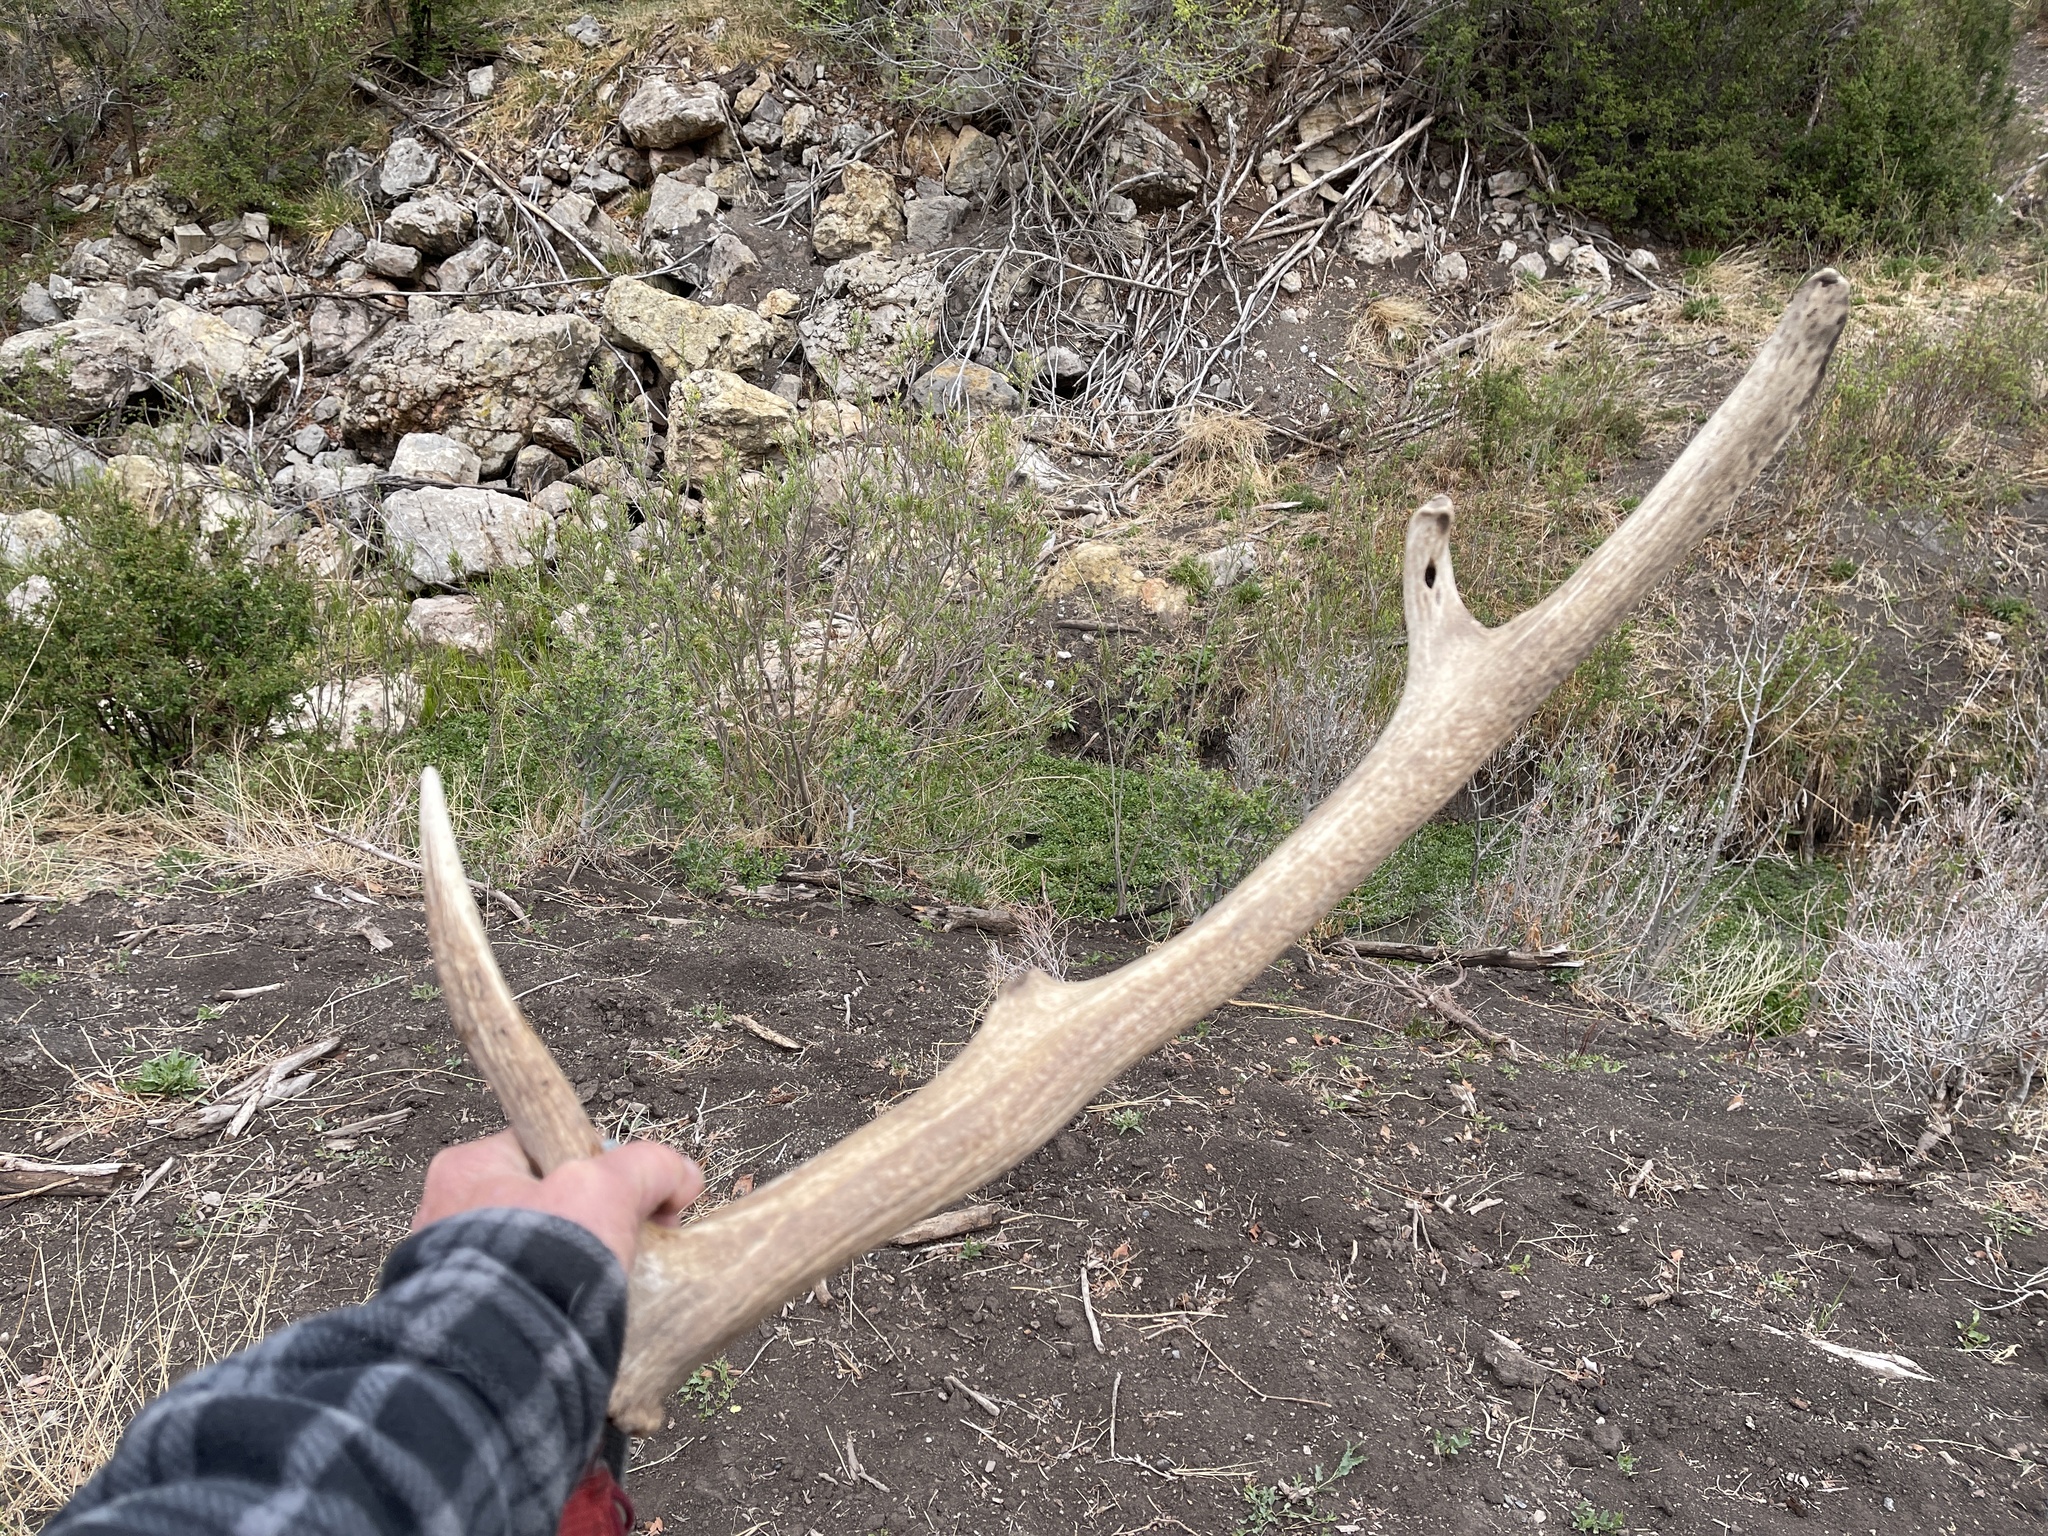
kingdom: Animalia
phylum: Chordata
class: Mammalia
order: Artiodactyla
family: Cervidae
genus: Cervus
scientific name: Cervus elaphus
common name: Red deer
